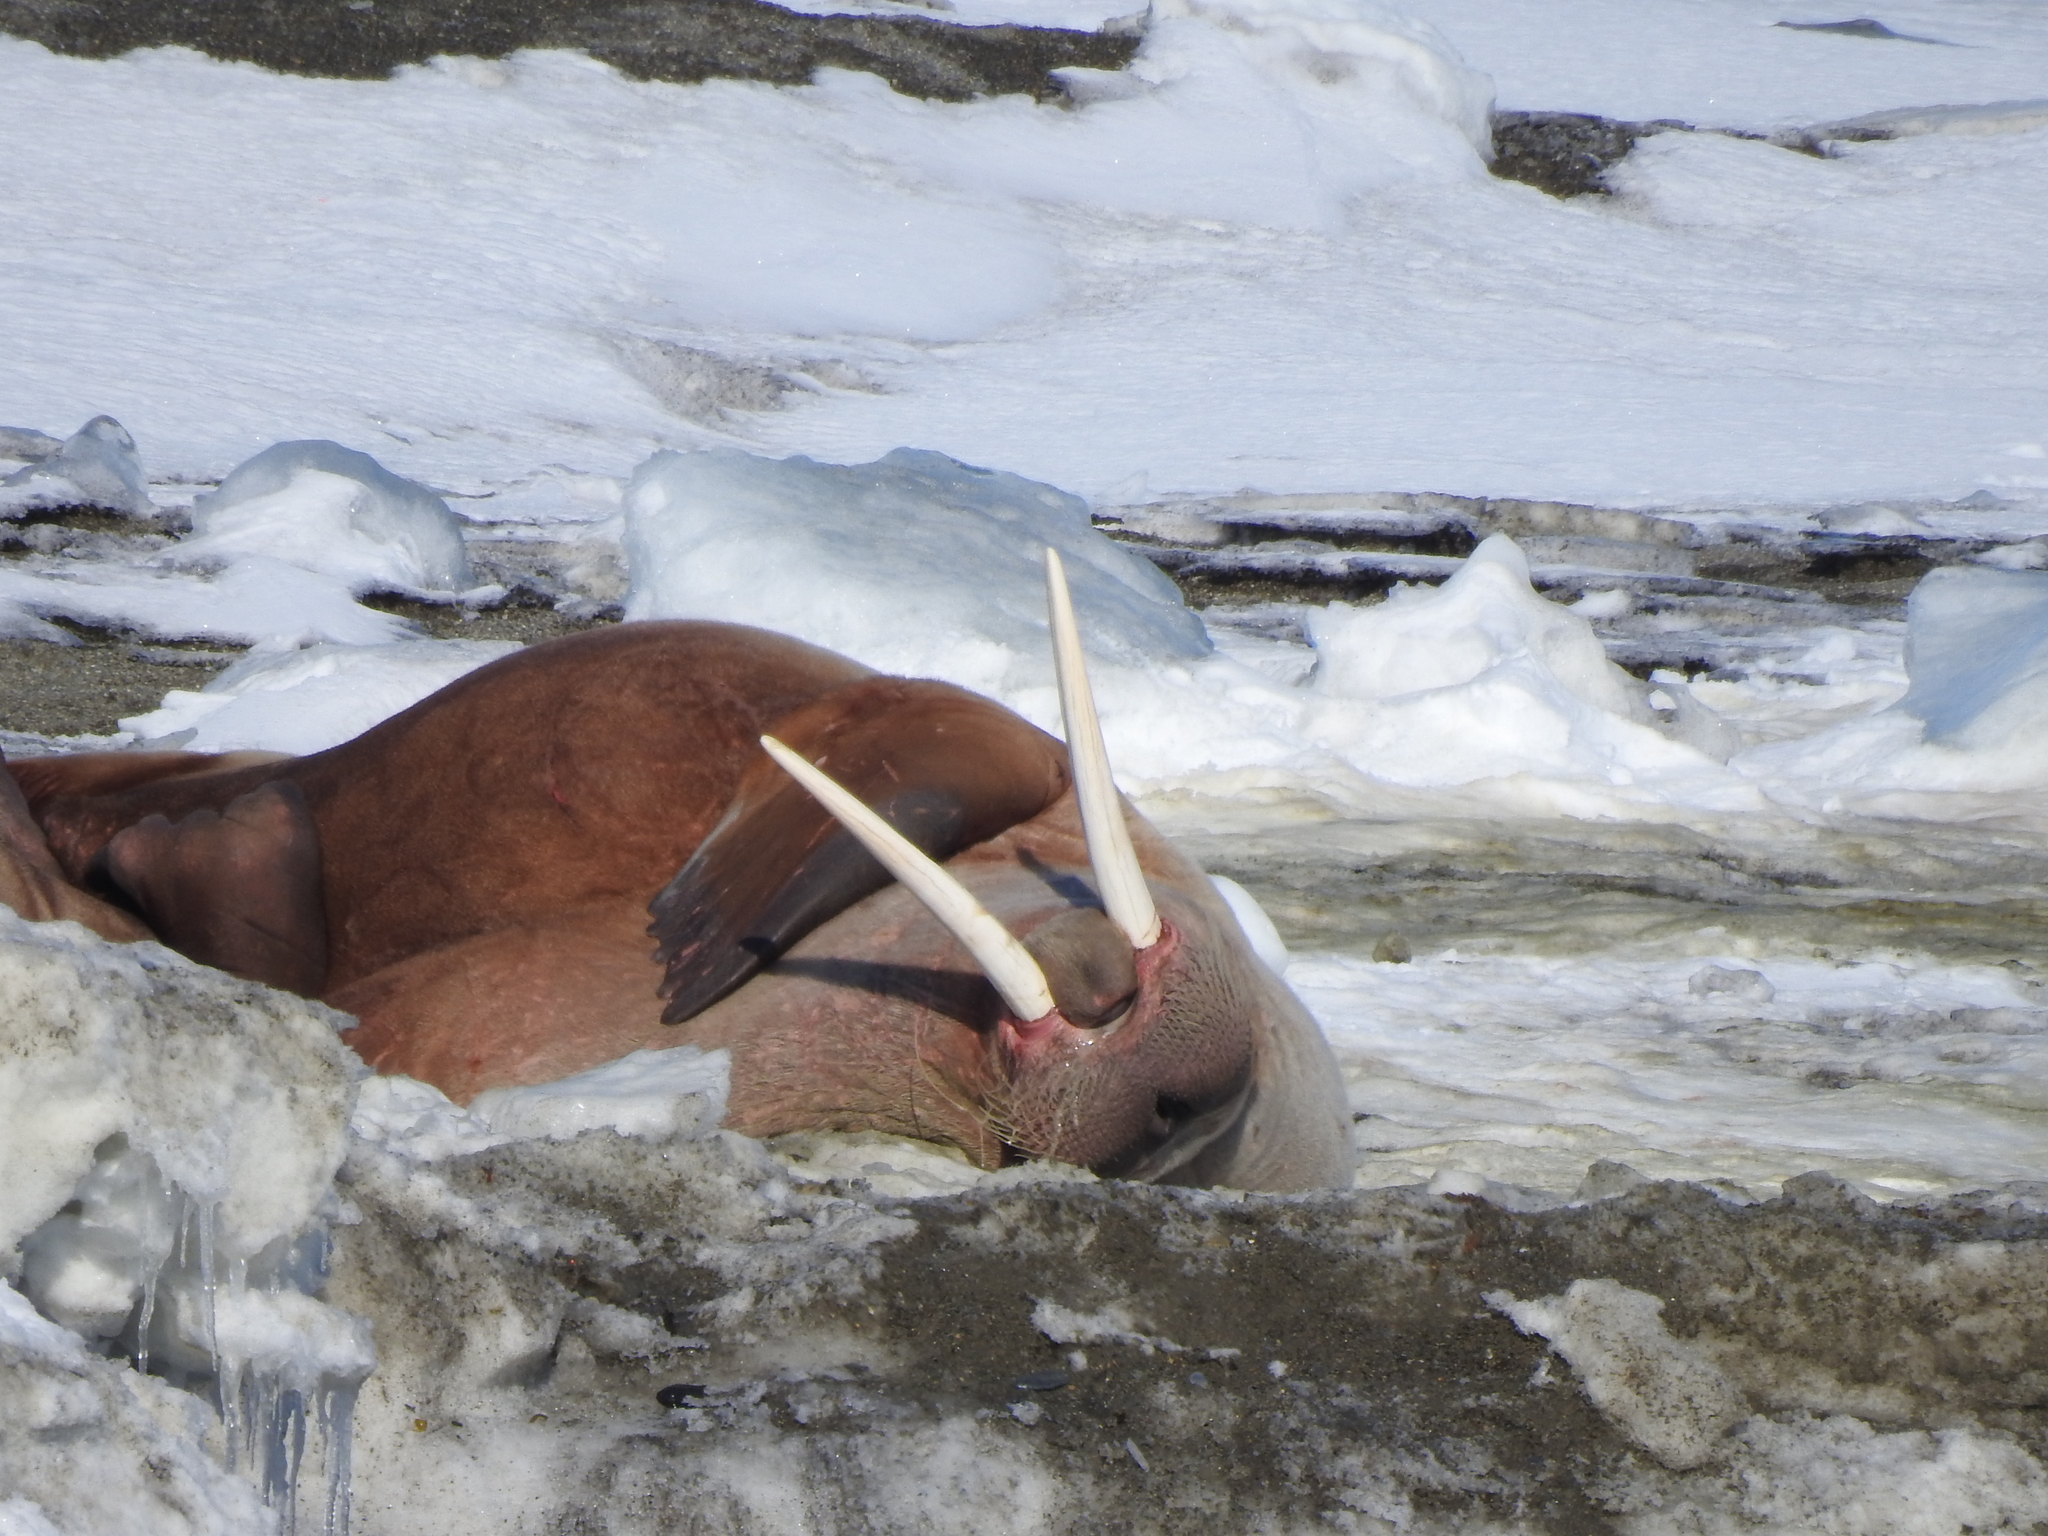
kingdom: Animalia
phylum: Chordata
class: Mammalia
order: Carnivora
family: Odobenidae
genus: Odobenus
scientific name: Odobenus rosmarus
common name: Walrus
